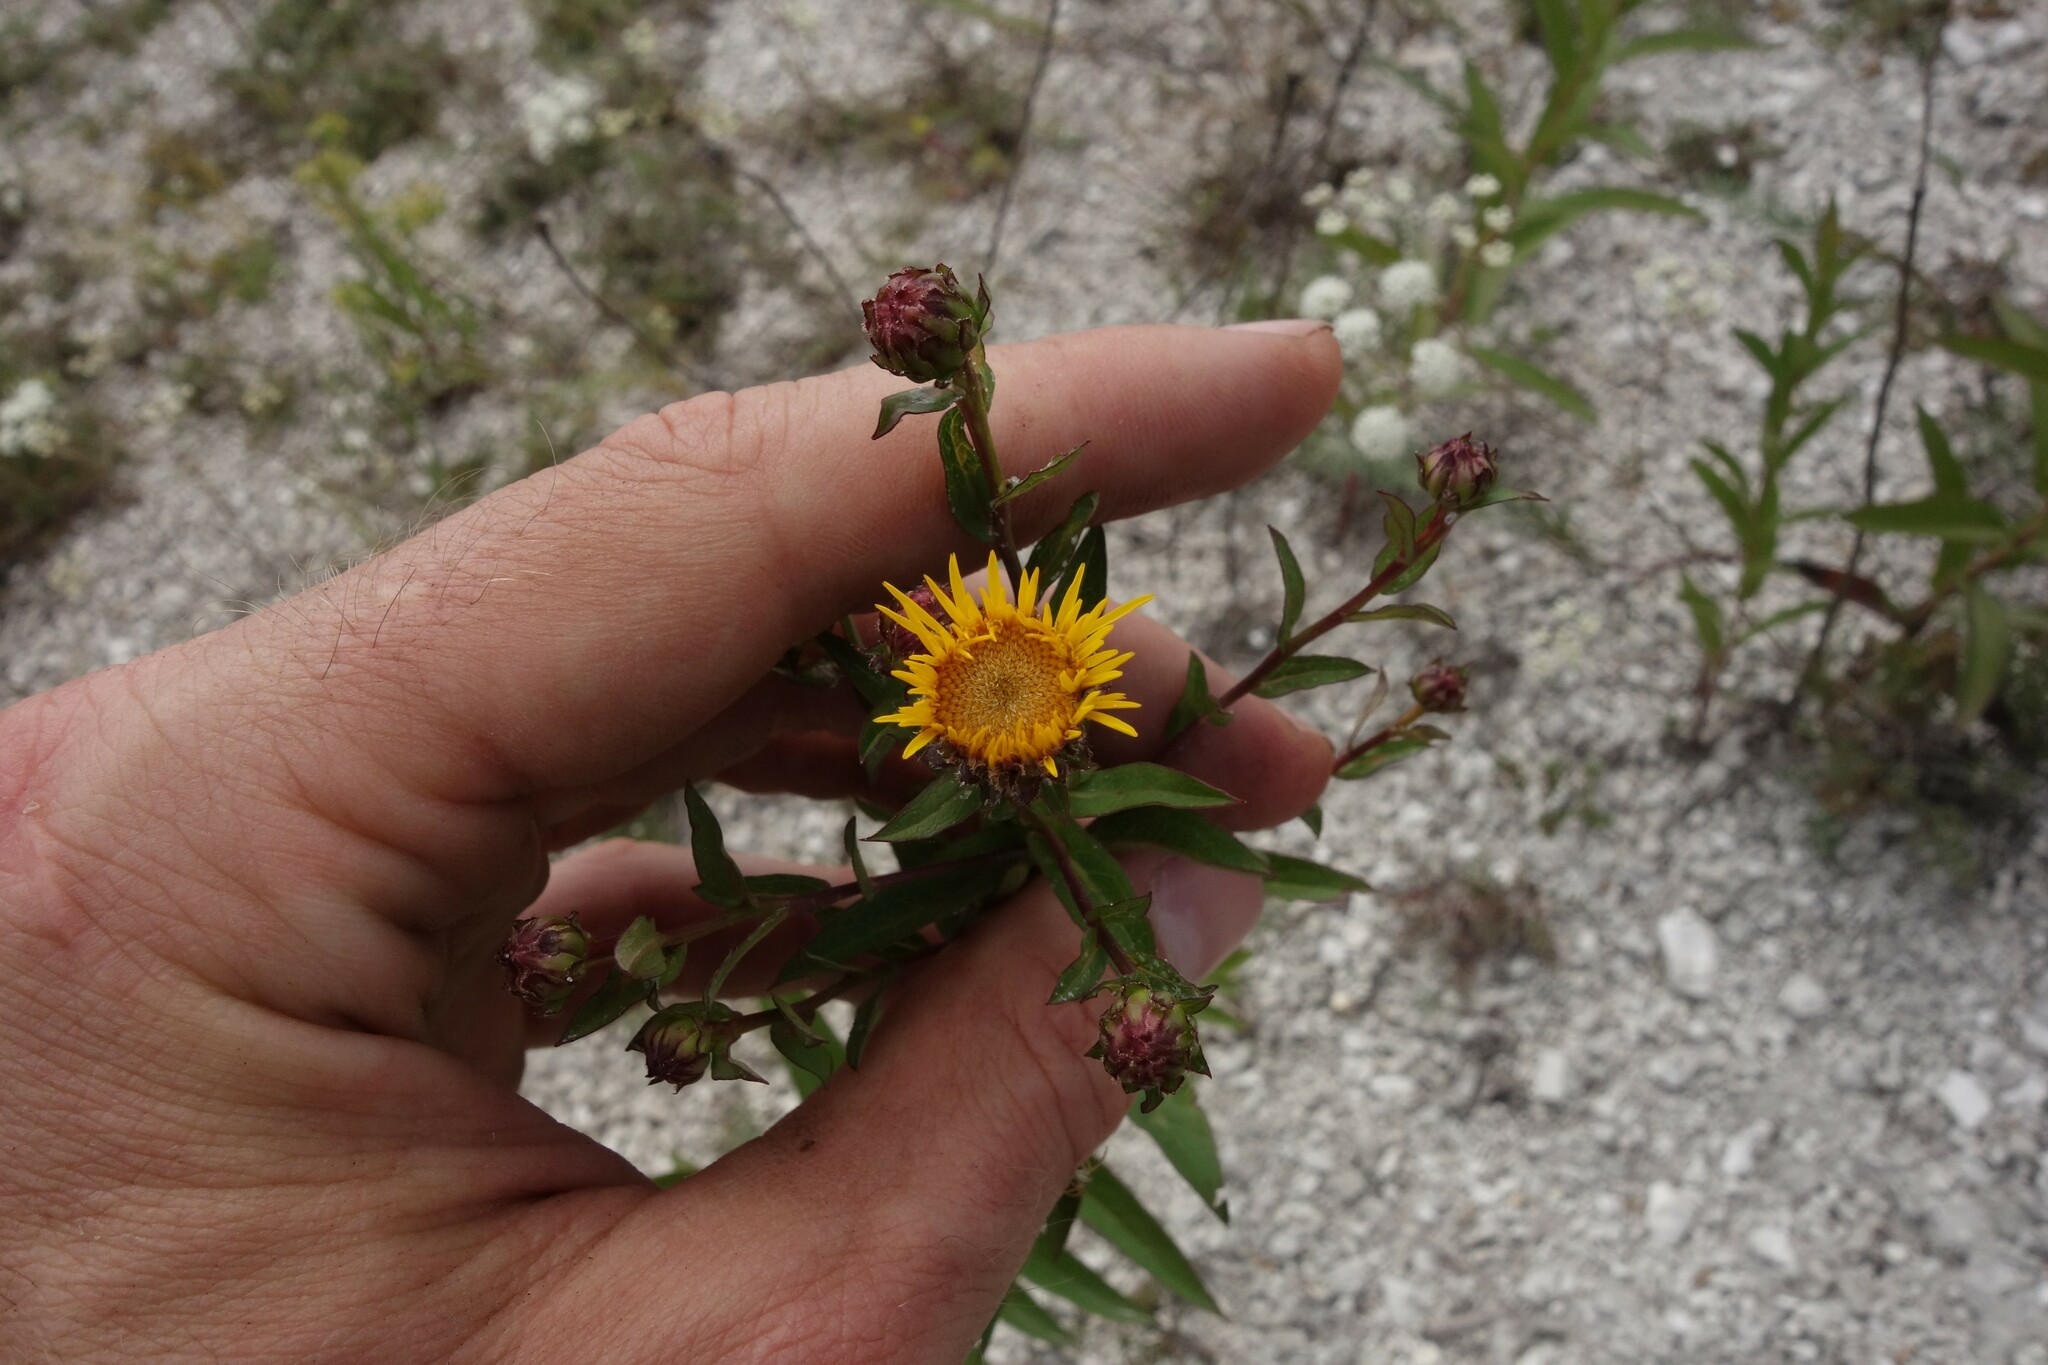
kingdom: Plantae
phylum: Tracheophyta
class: Magnoliopsida
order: Asterales
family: Asteraceae
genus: Pentanema
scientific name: Pentanema salicinum
